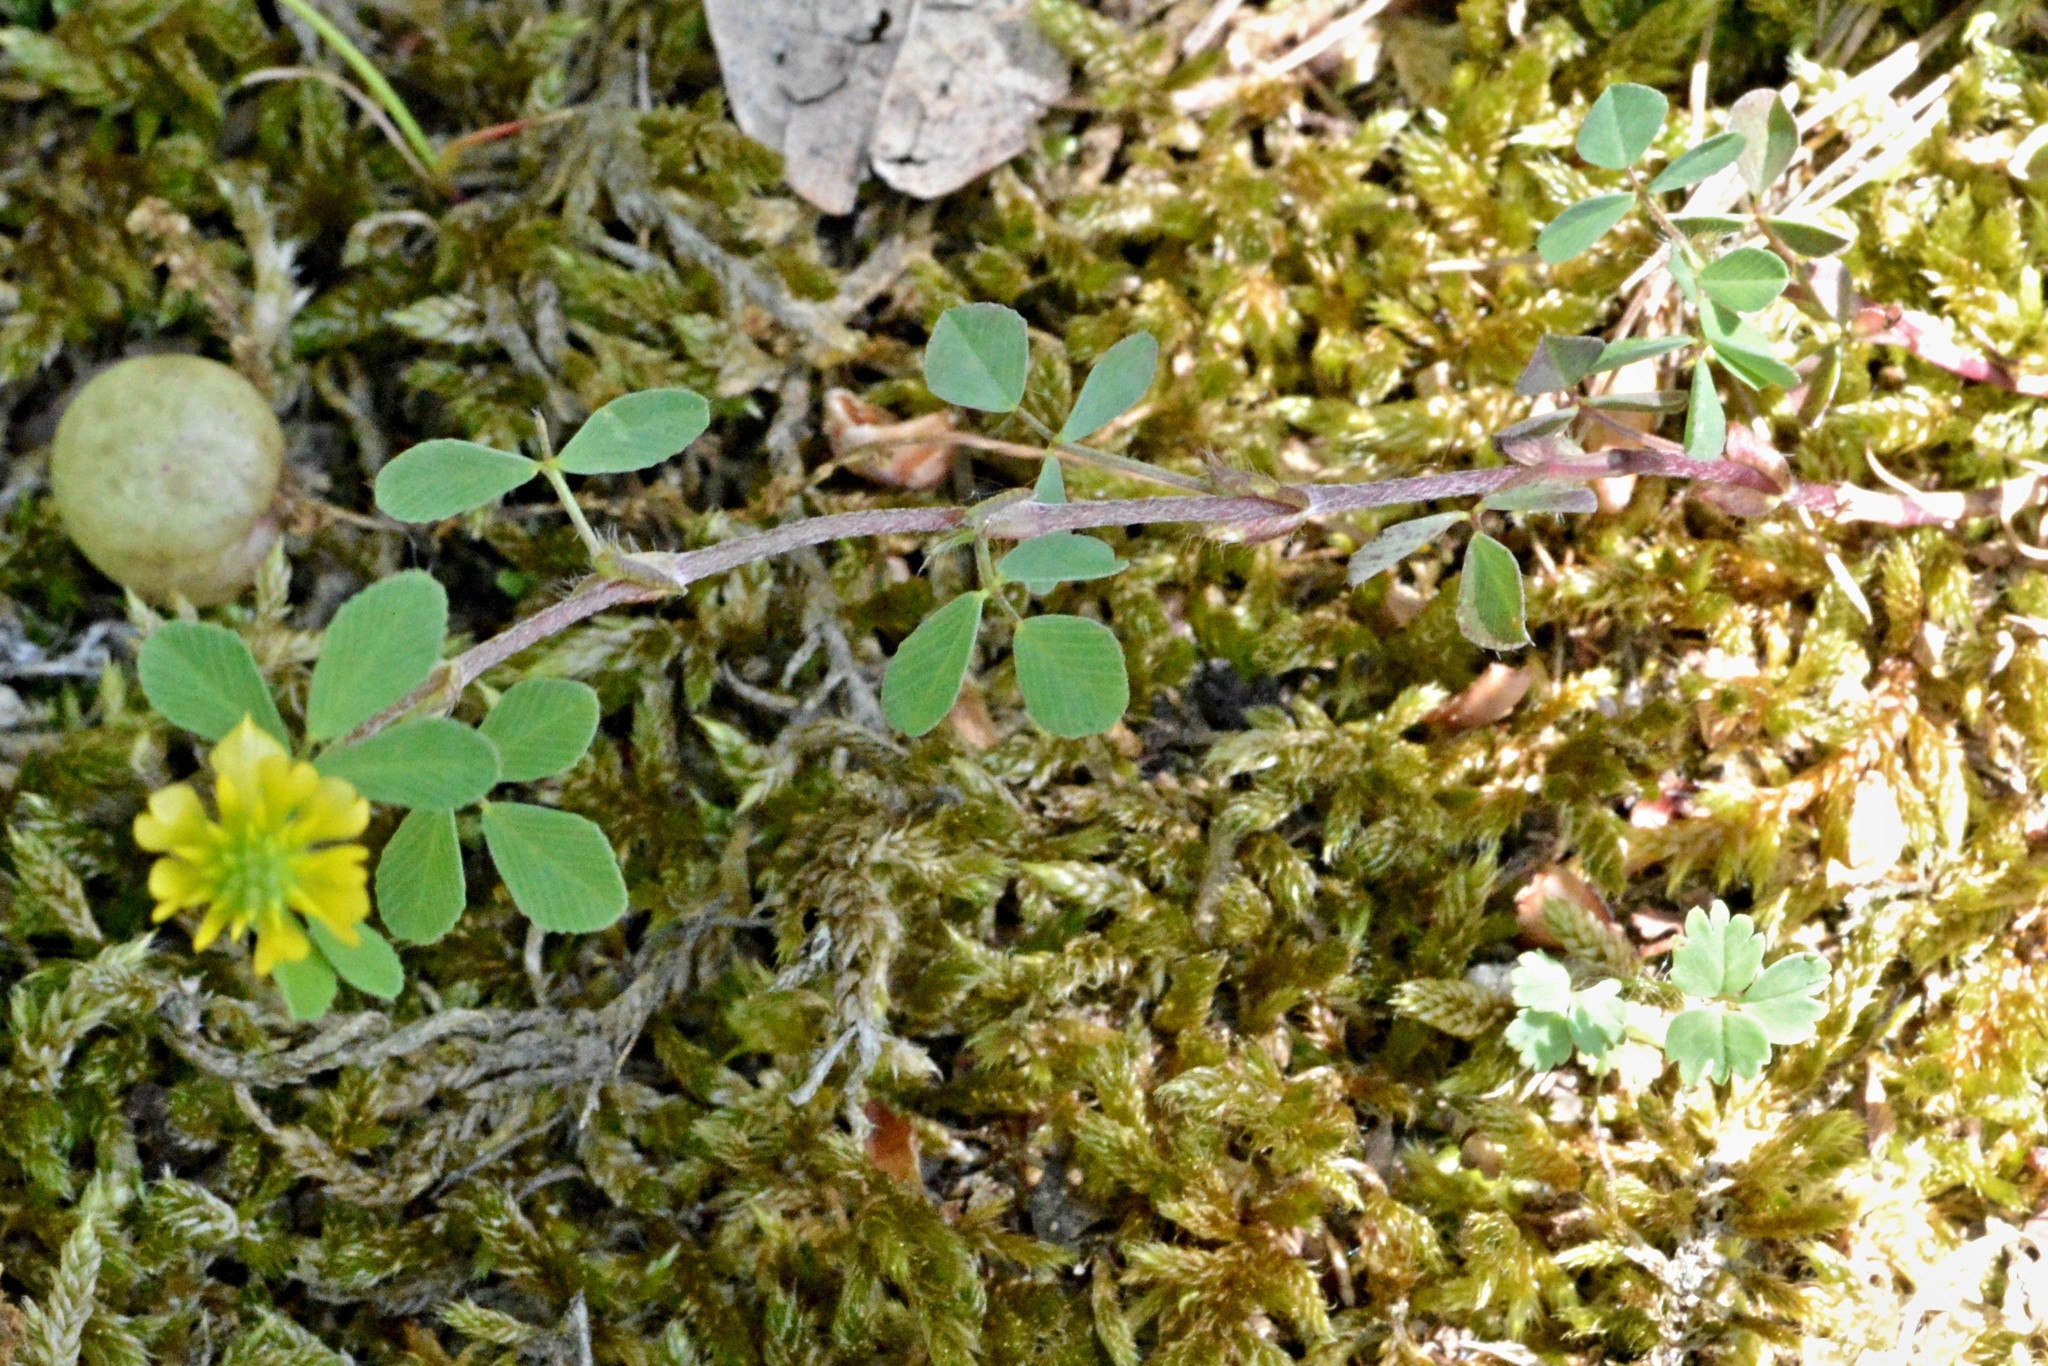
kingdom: Plantae
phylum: Tracheophyta
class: Magnoliopsida
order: Fabales
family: Fabaceae
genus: Trifolium
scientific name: Trifolium campestre
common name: Field clover
